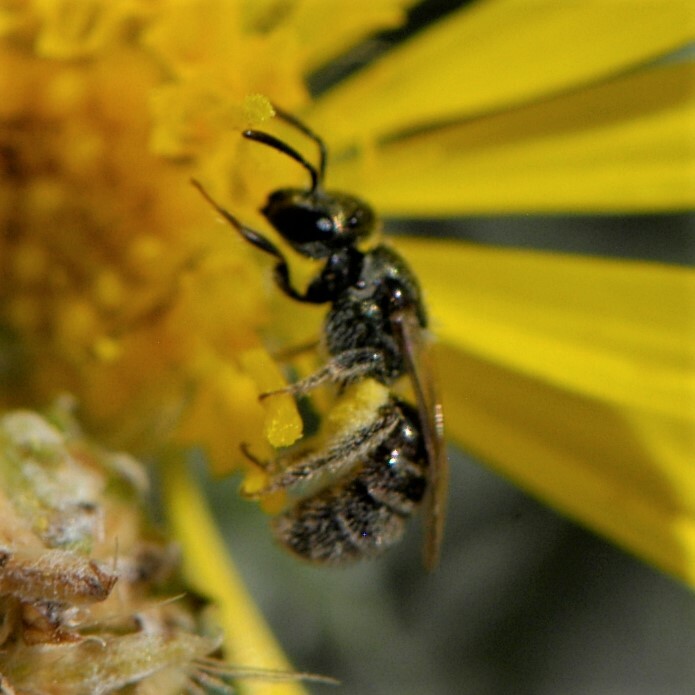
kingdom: Animalia
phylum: Arthropoda
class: Insecta
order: Hymenoptera
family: Halictidae
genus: Dialictus
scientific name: Dialictus
